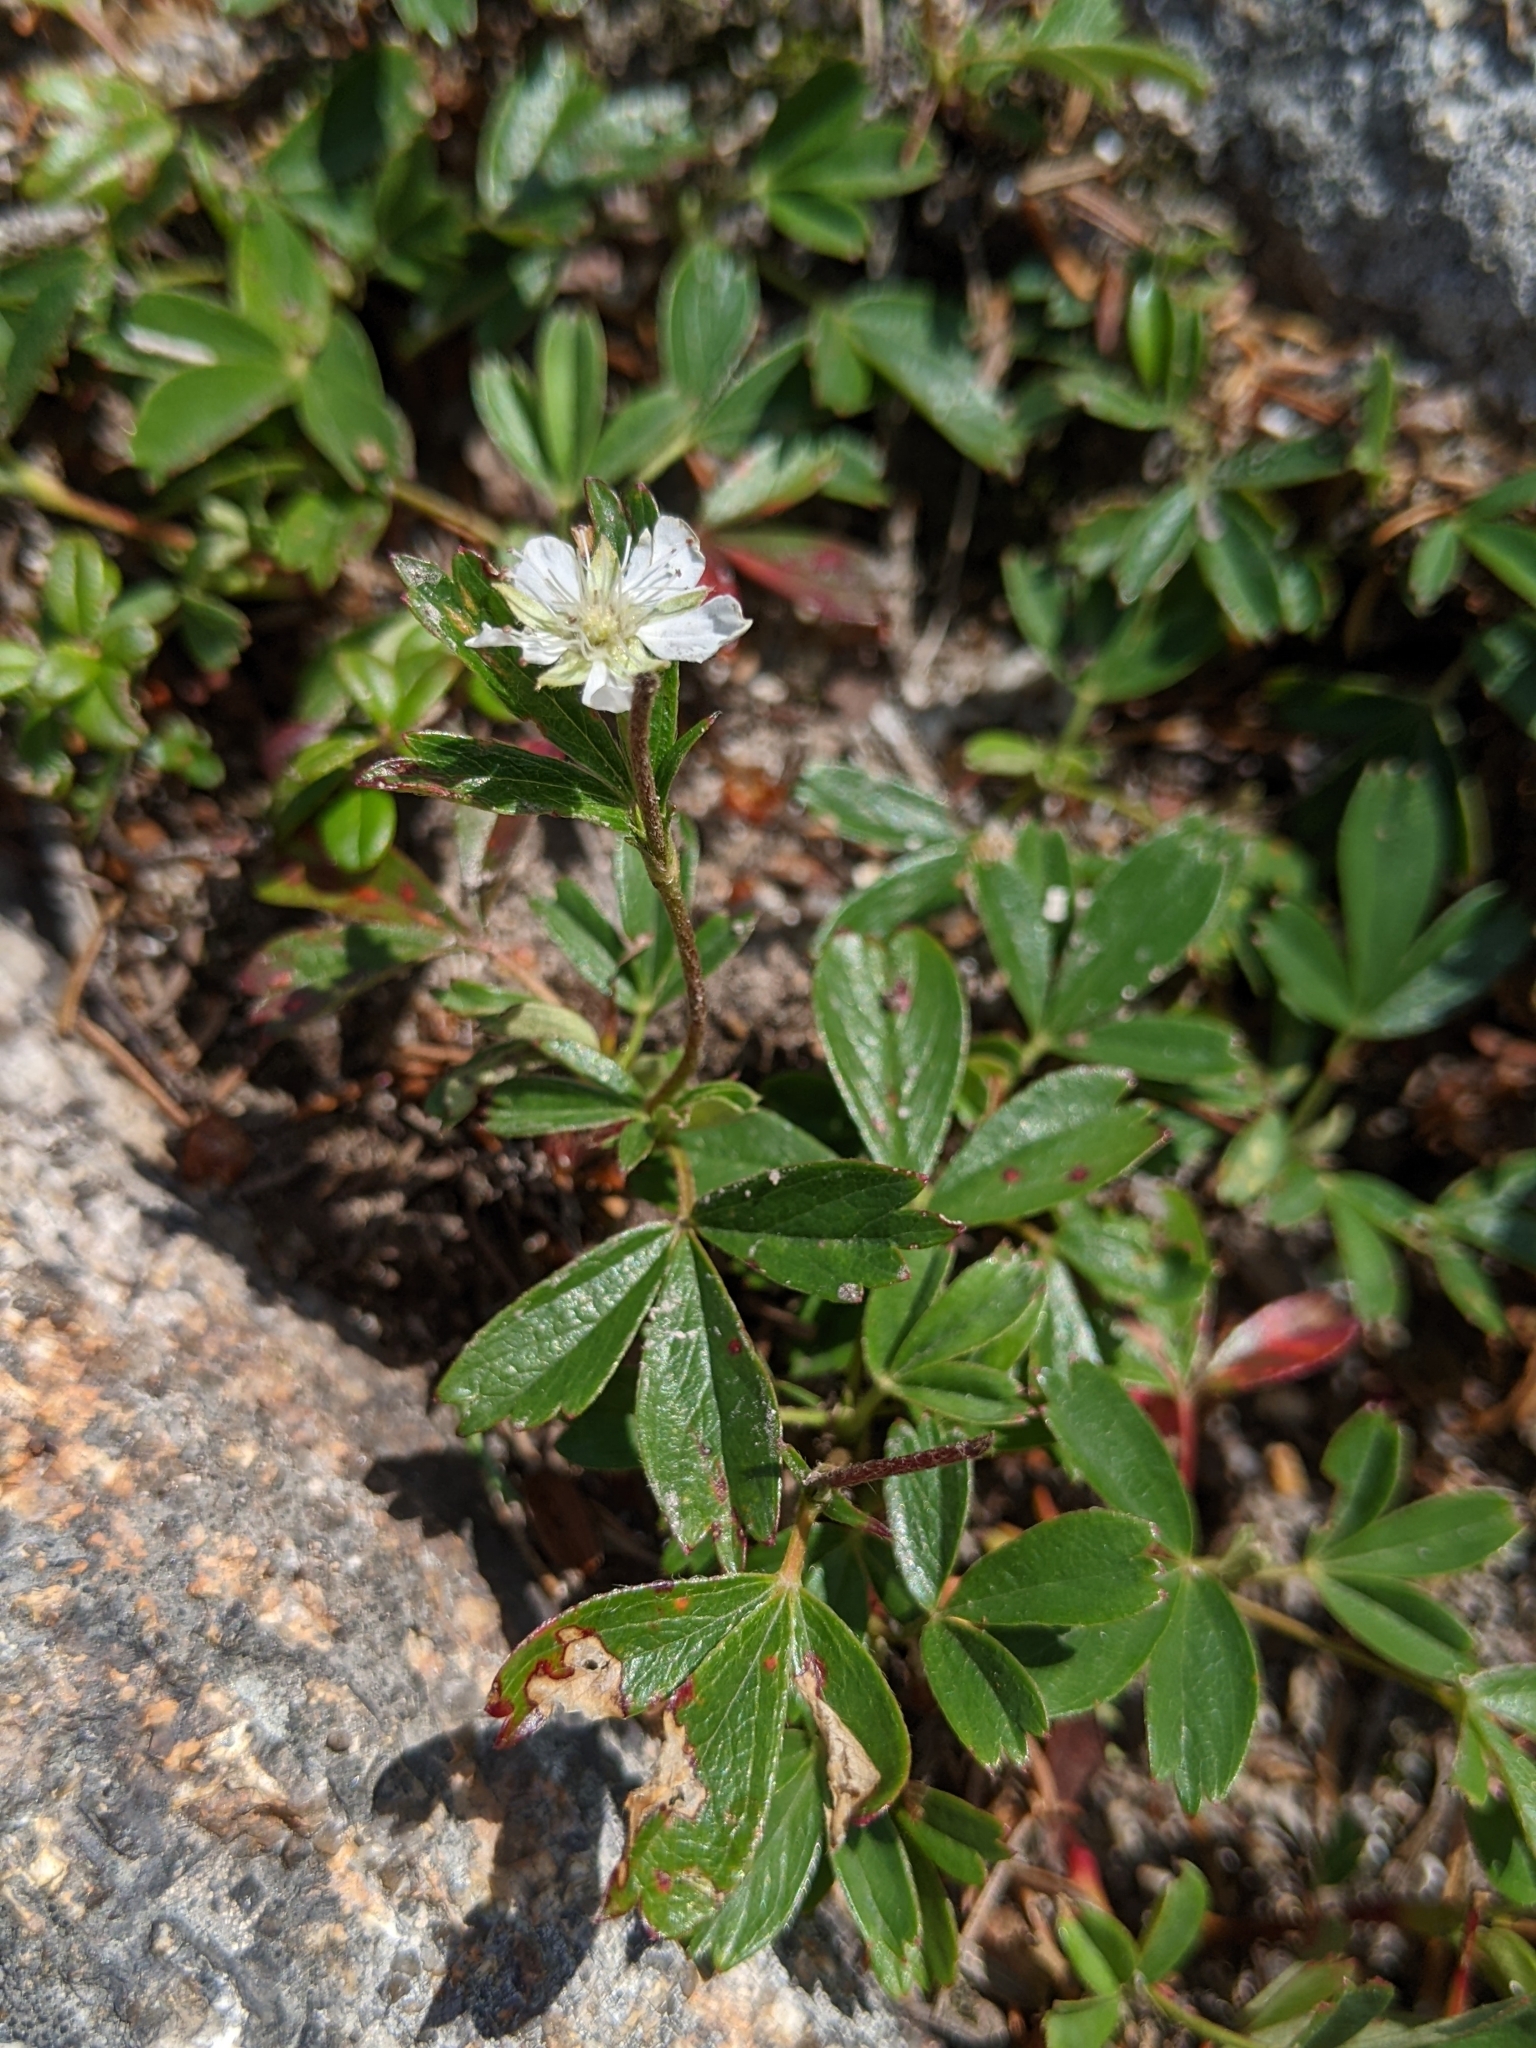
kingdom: Plantae
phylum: Tracheophyta
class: Magnoliopsida
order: Rosales
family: Rosaceae
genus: Sibbaldia
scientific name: Sibbaldia tridentata
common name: Three-toothed cinquefoil
